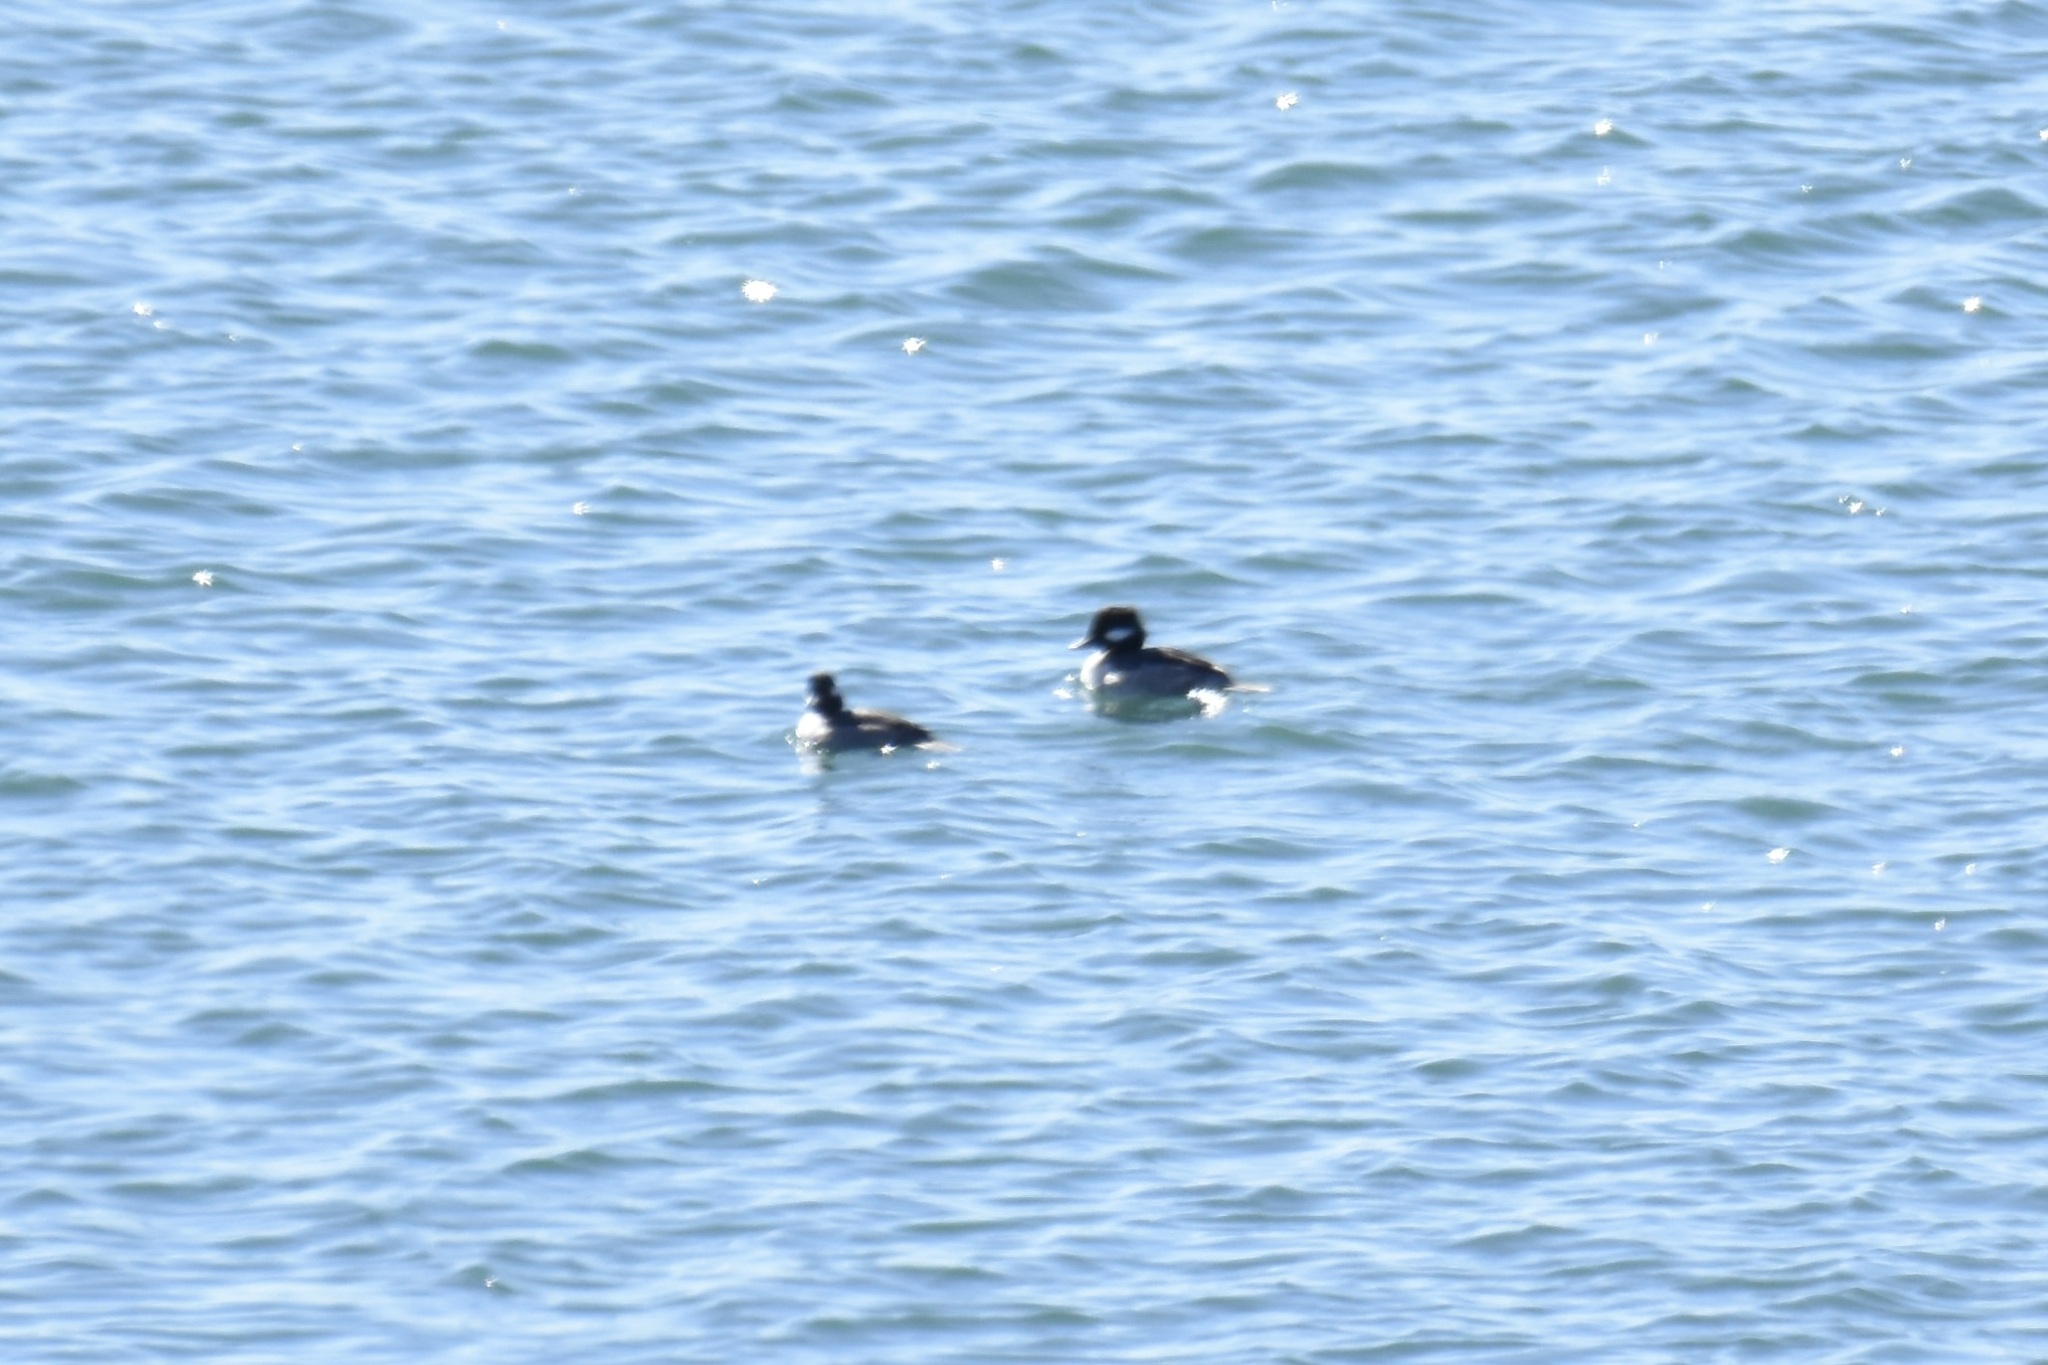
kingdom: Animalia
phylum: Chordata
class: Aves
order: Anseriformes
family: Anatidae
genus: Bucephala
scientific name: Bucephala albeola
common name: Bufflehead
